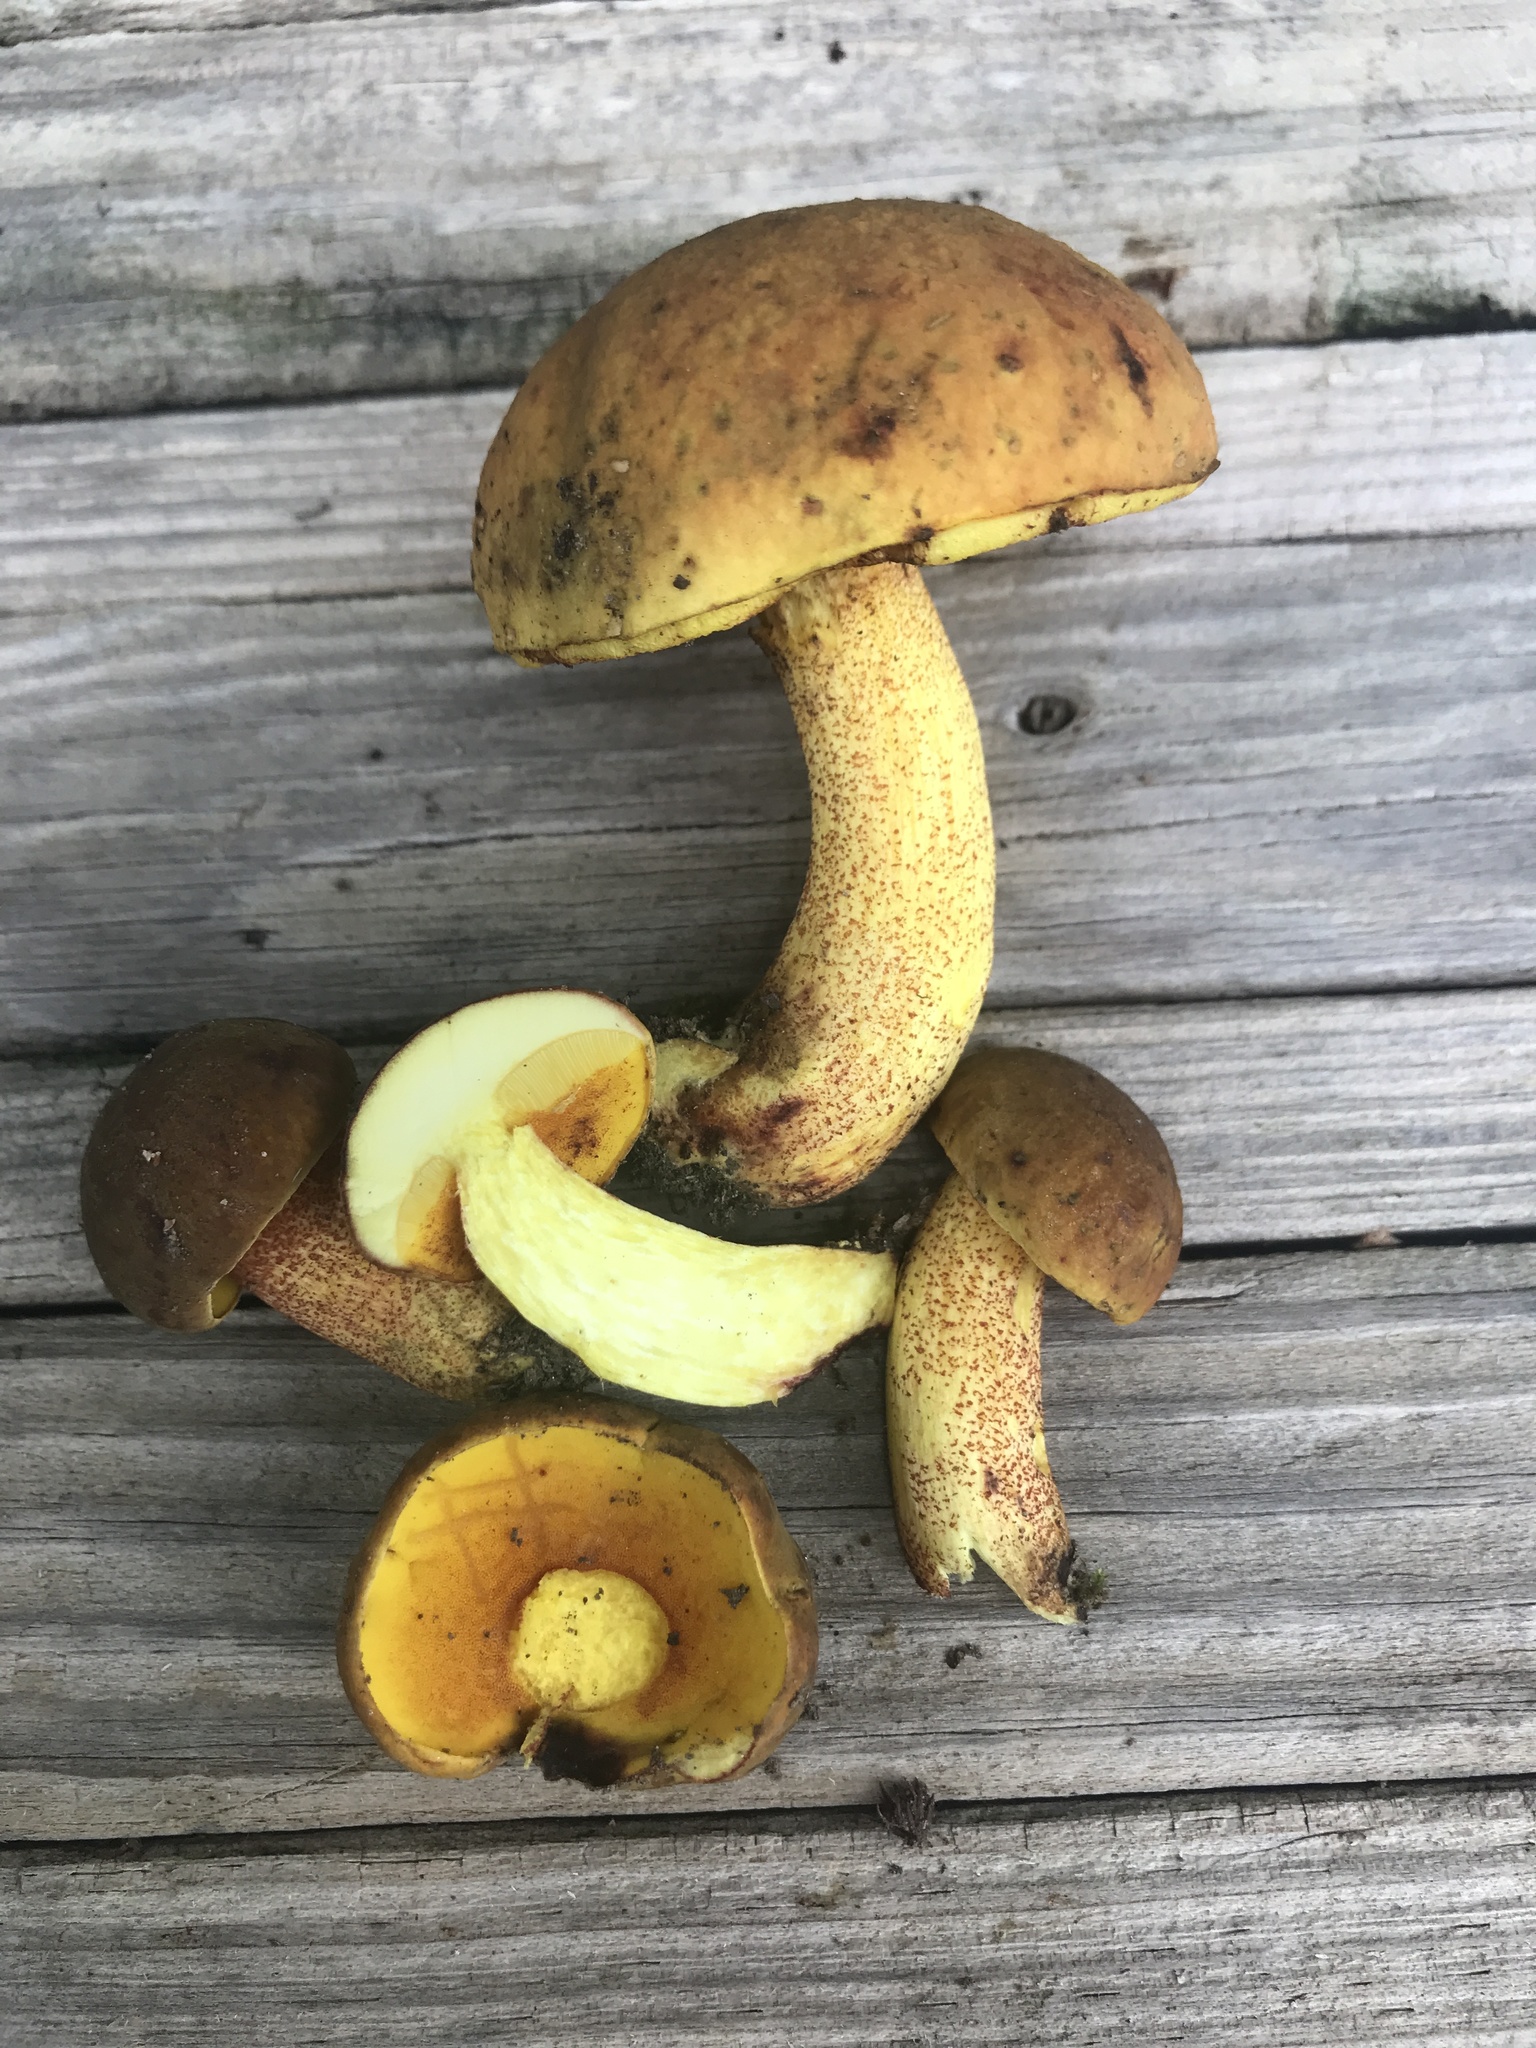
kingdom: Fungi
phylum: Basidiomycota
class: Agaricomycetes
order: Boletales
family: Boletaceae
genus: Xerocomus
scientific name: Xerocomus morrisii
